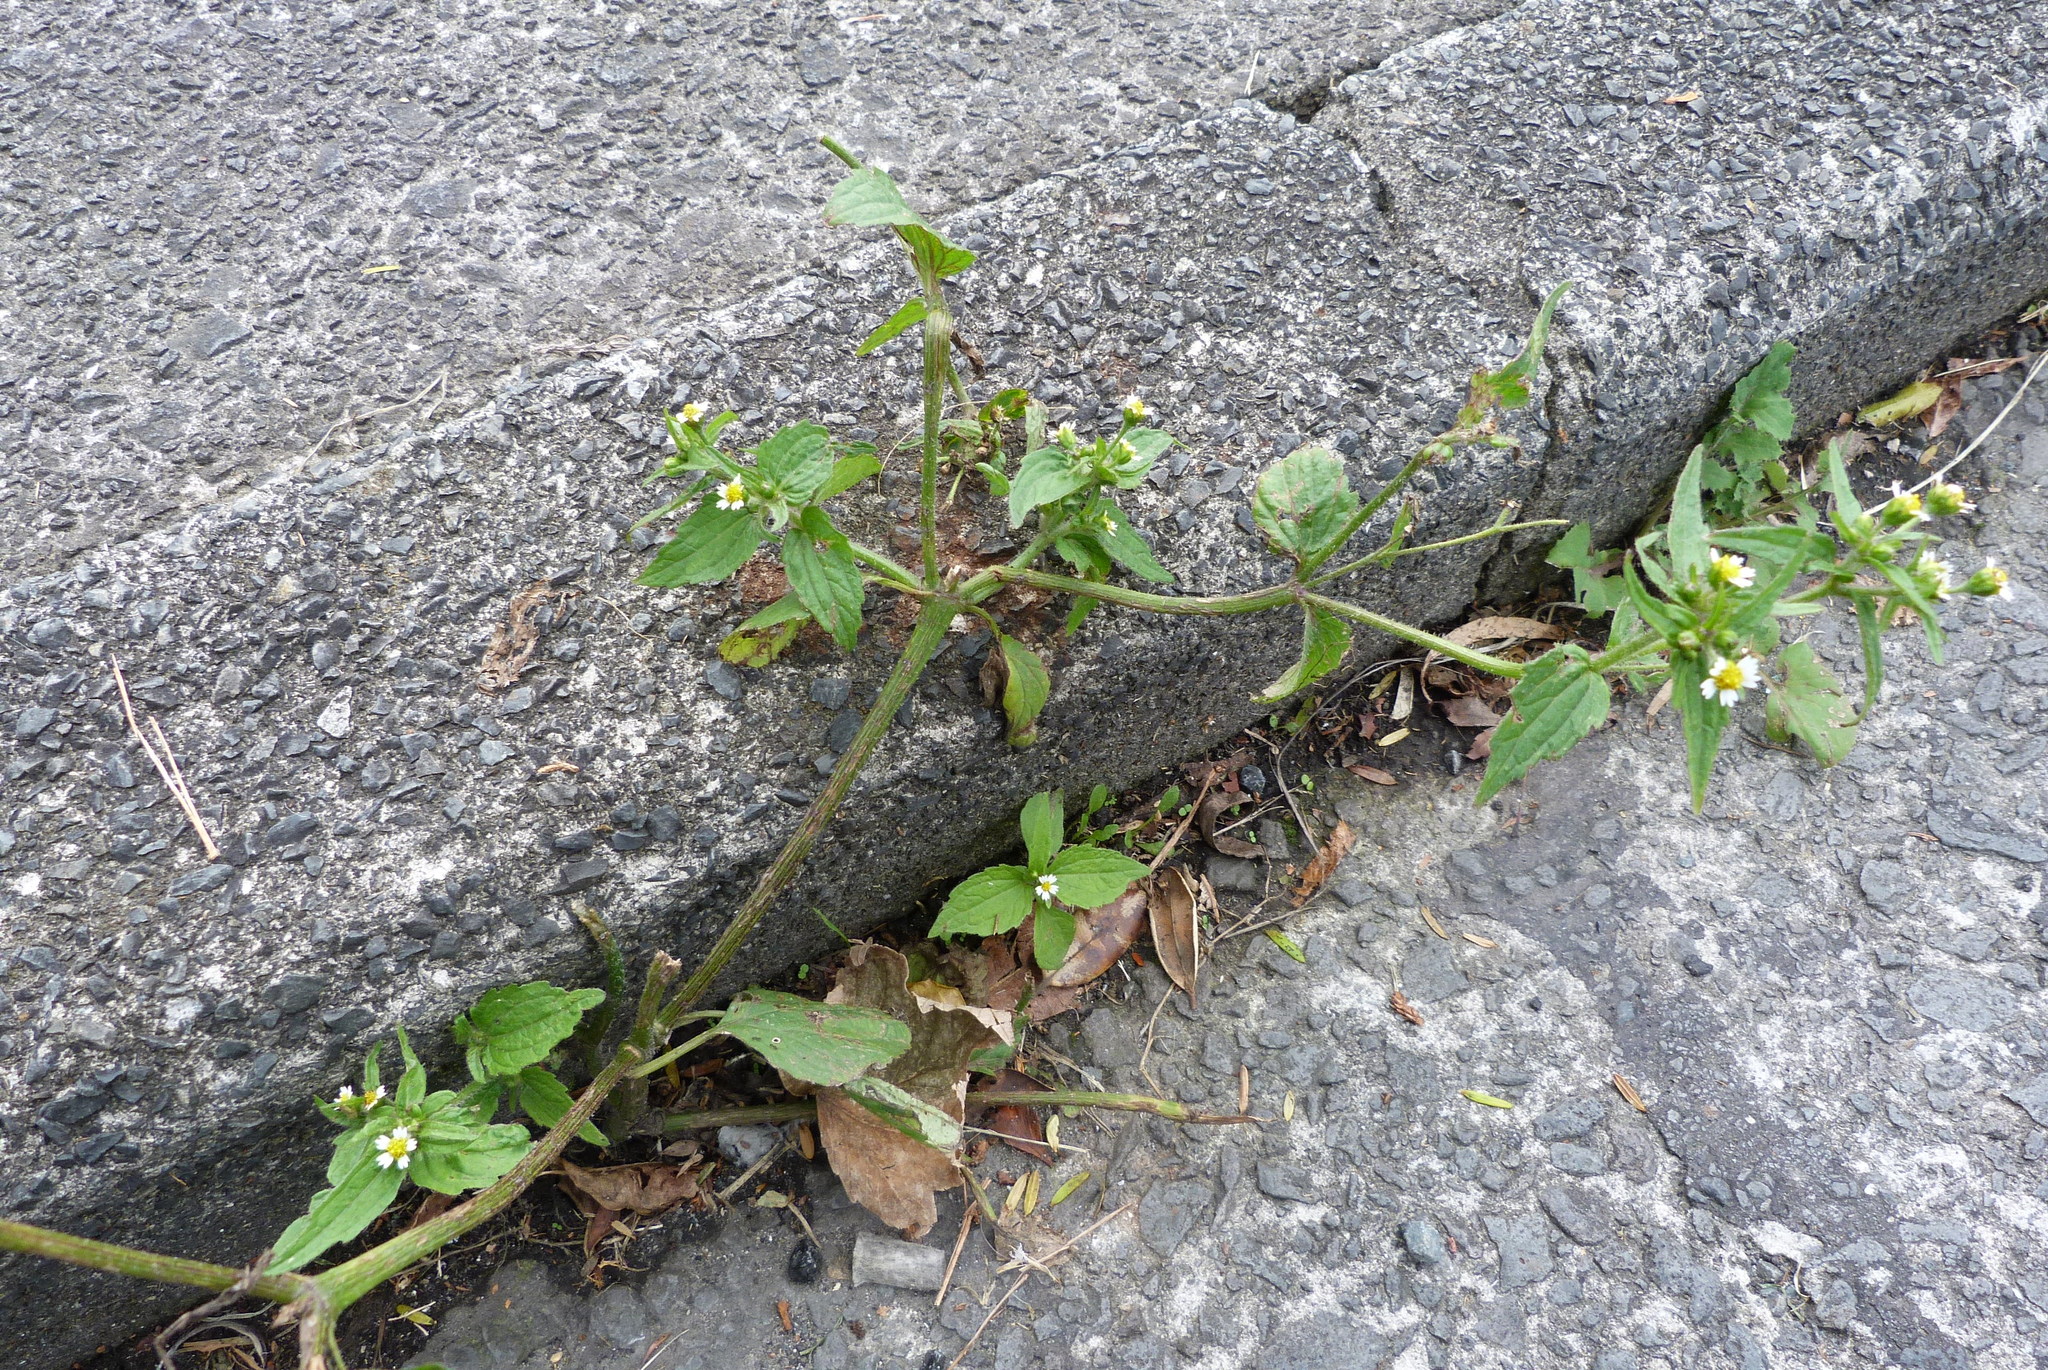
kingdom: Plantae
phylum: Tracheophyta
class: Magnoliopsida
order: Asterales
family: Asteraceae
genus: Galinsoga
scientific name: Galinsoga parviflora
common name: Gallant soldier
